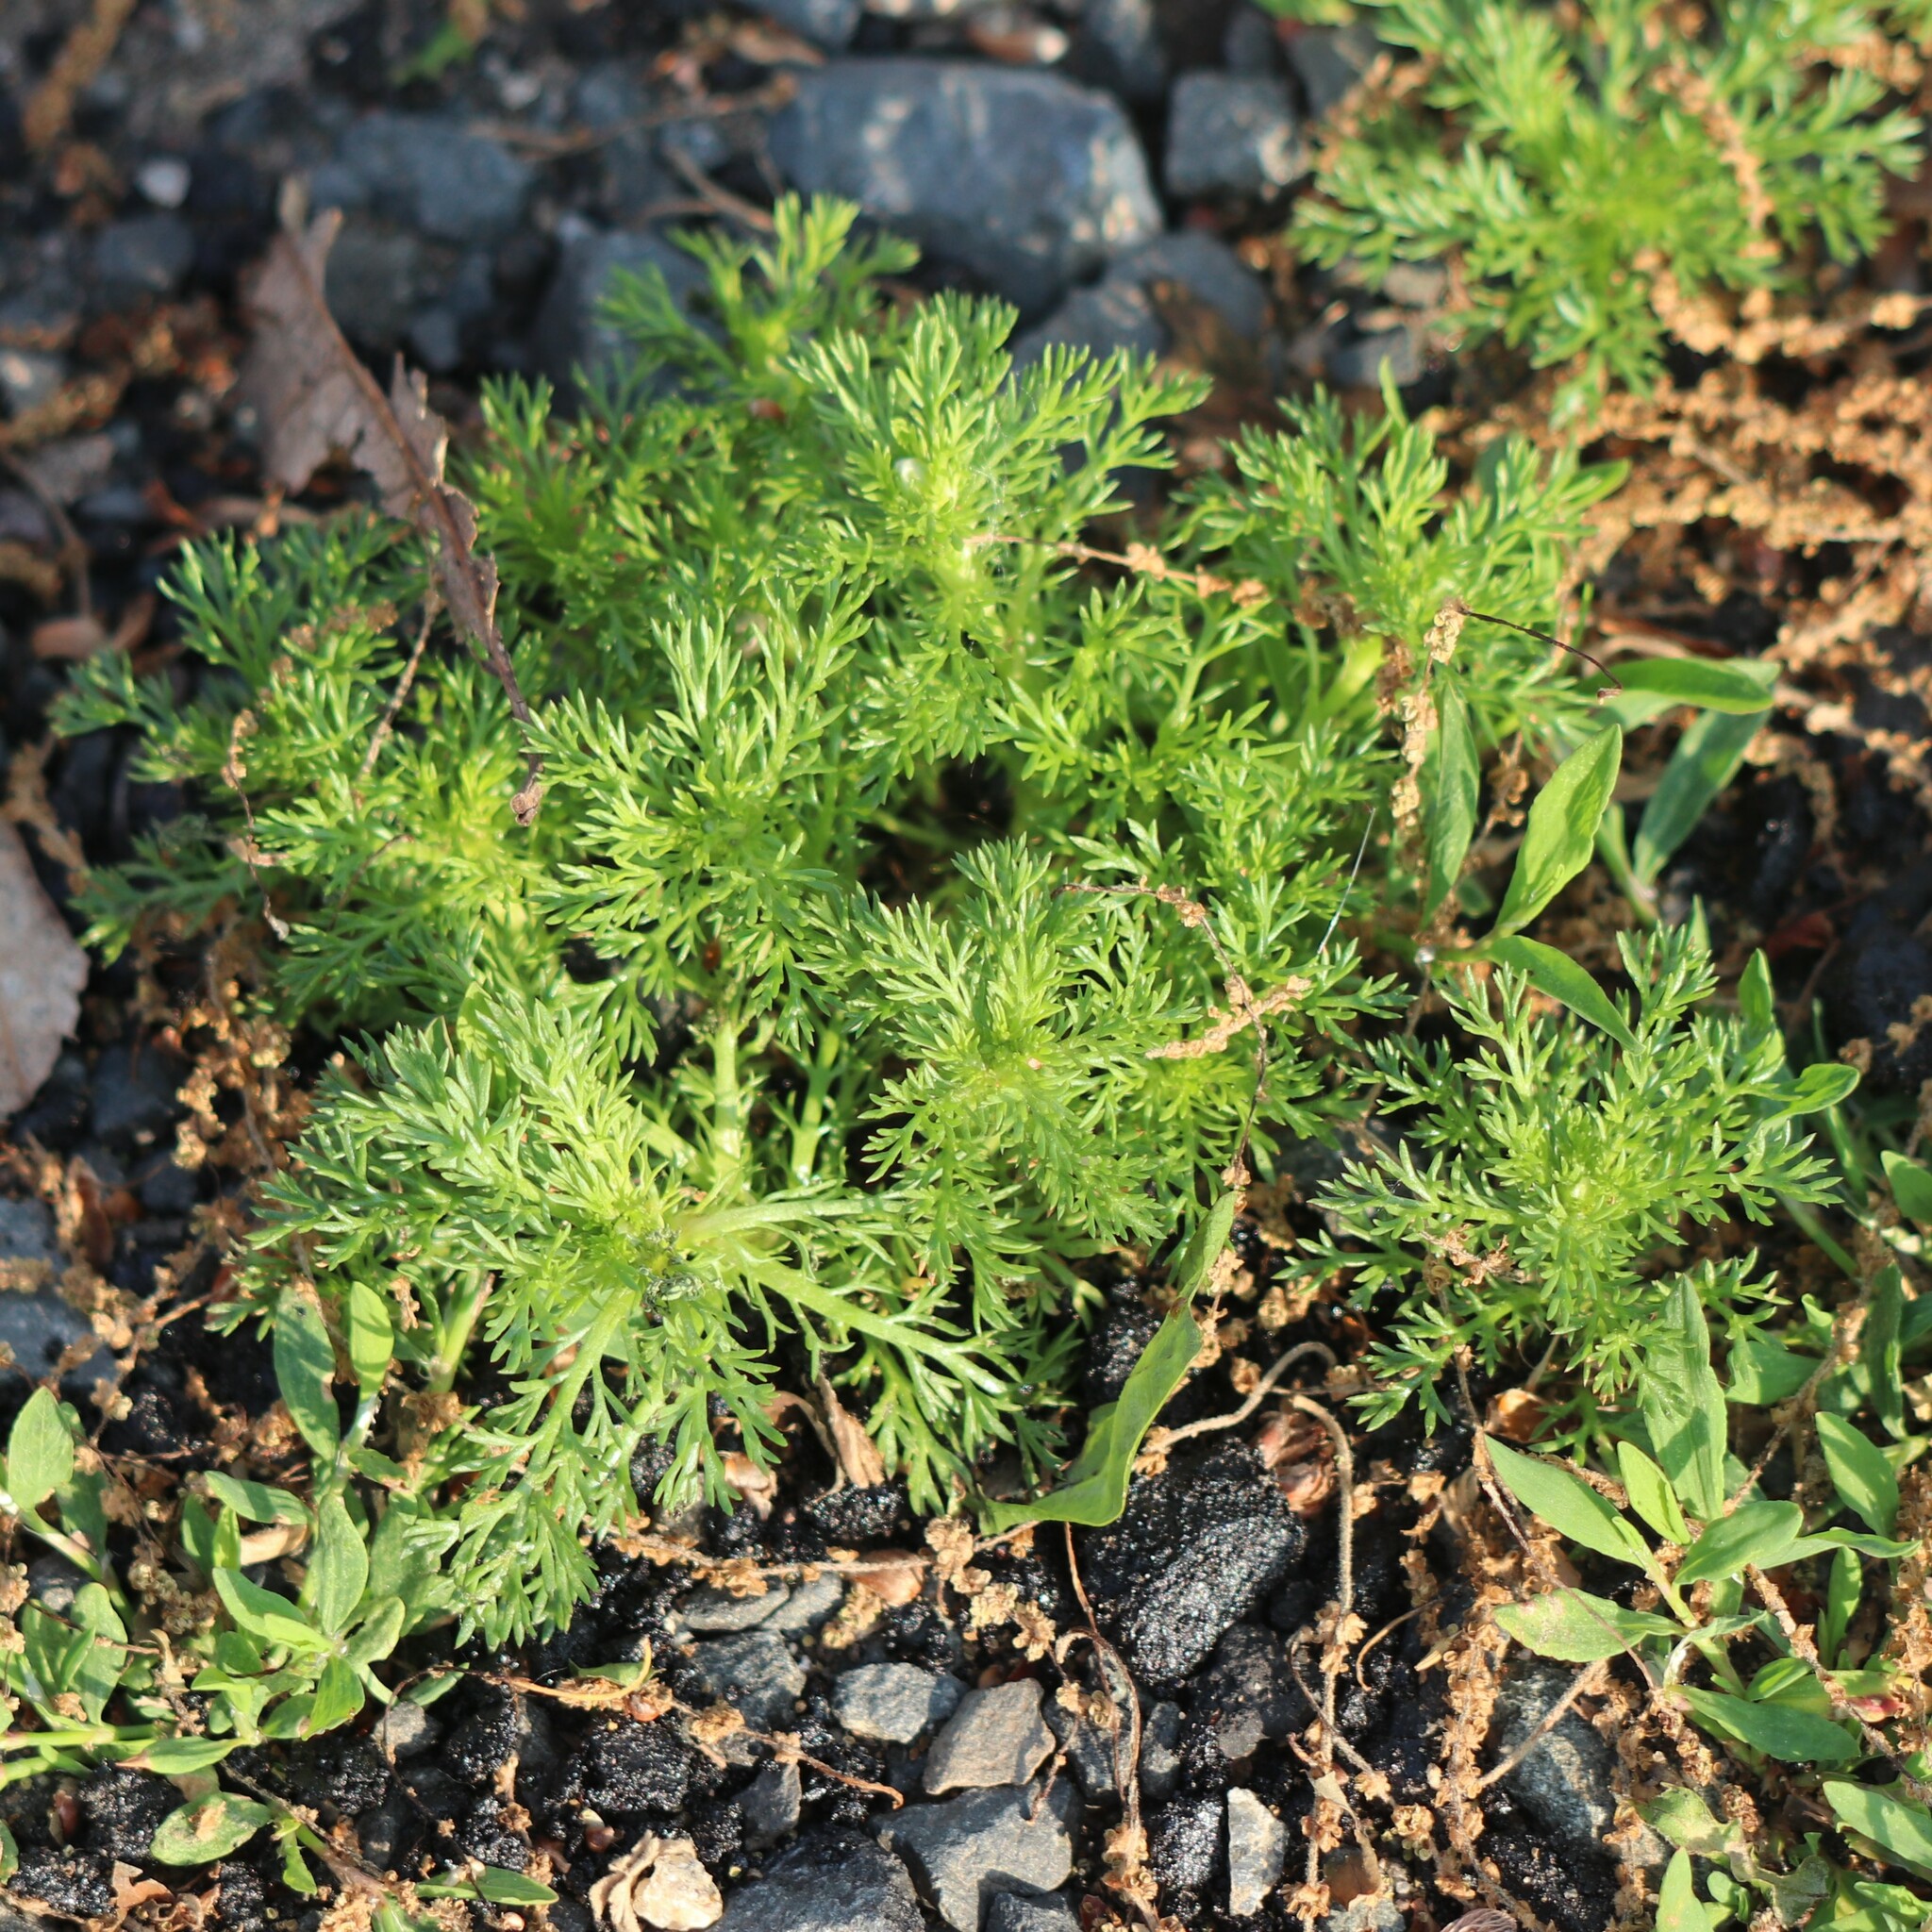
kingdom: Plantae
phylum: Tracheophyta
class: Magnoliopsida
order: Asterales
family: Asteraceae
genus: Matricaria
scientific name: Matricaria discoidea
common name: Disc mayweed
